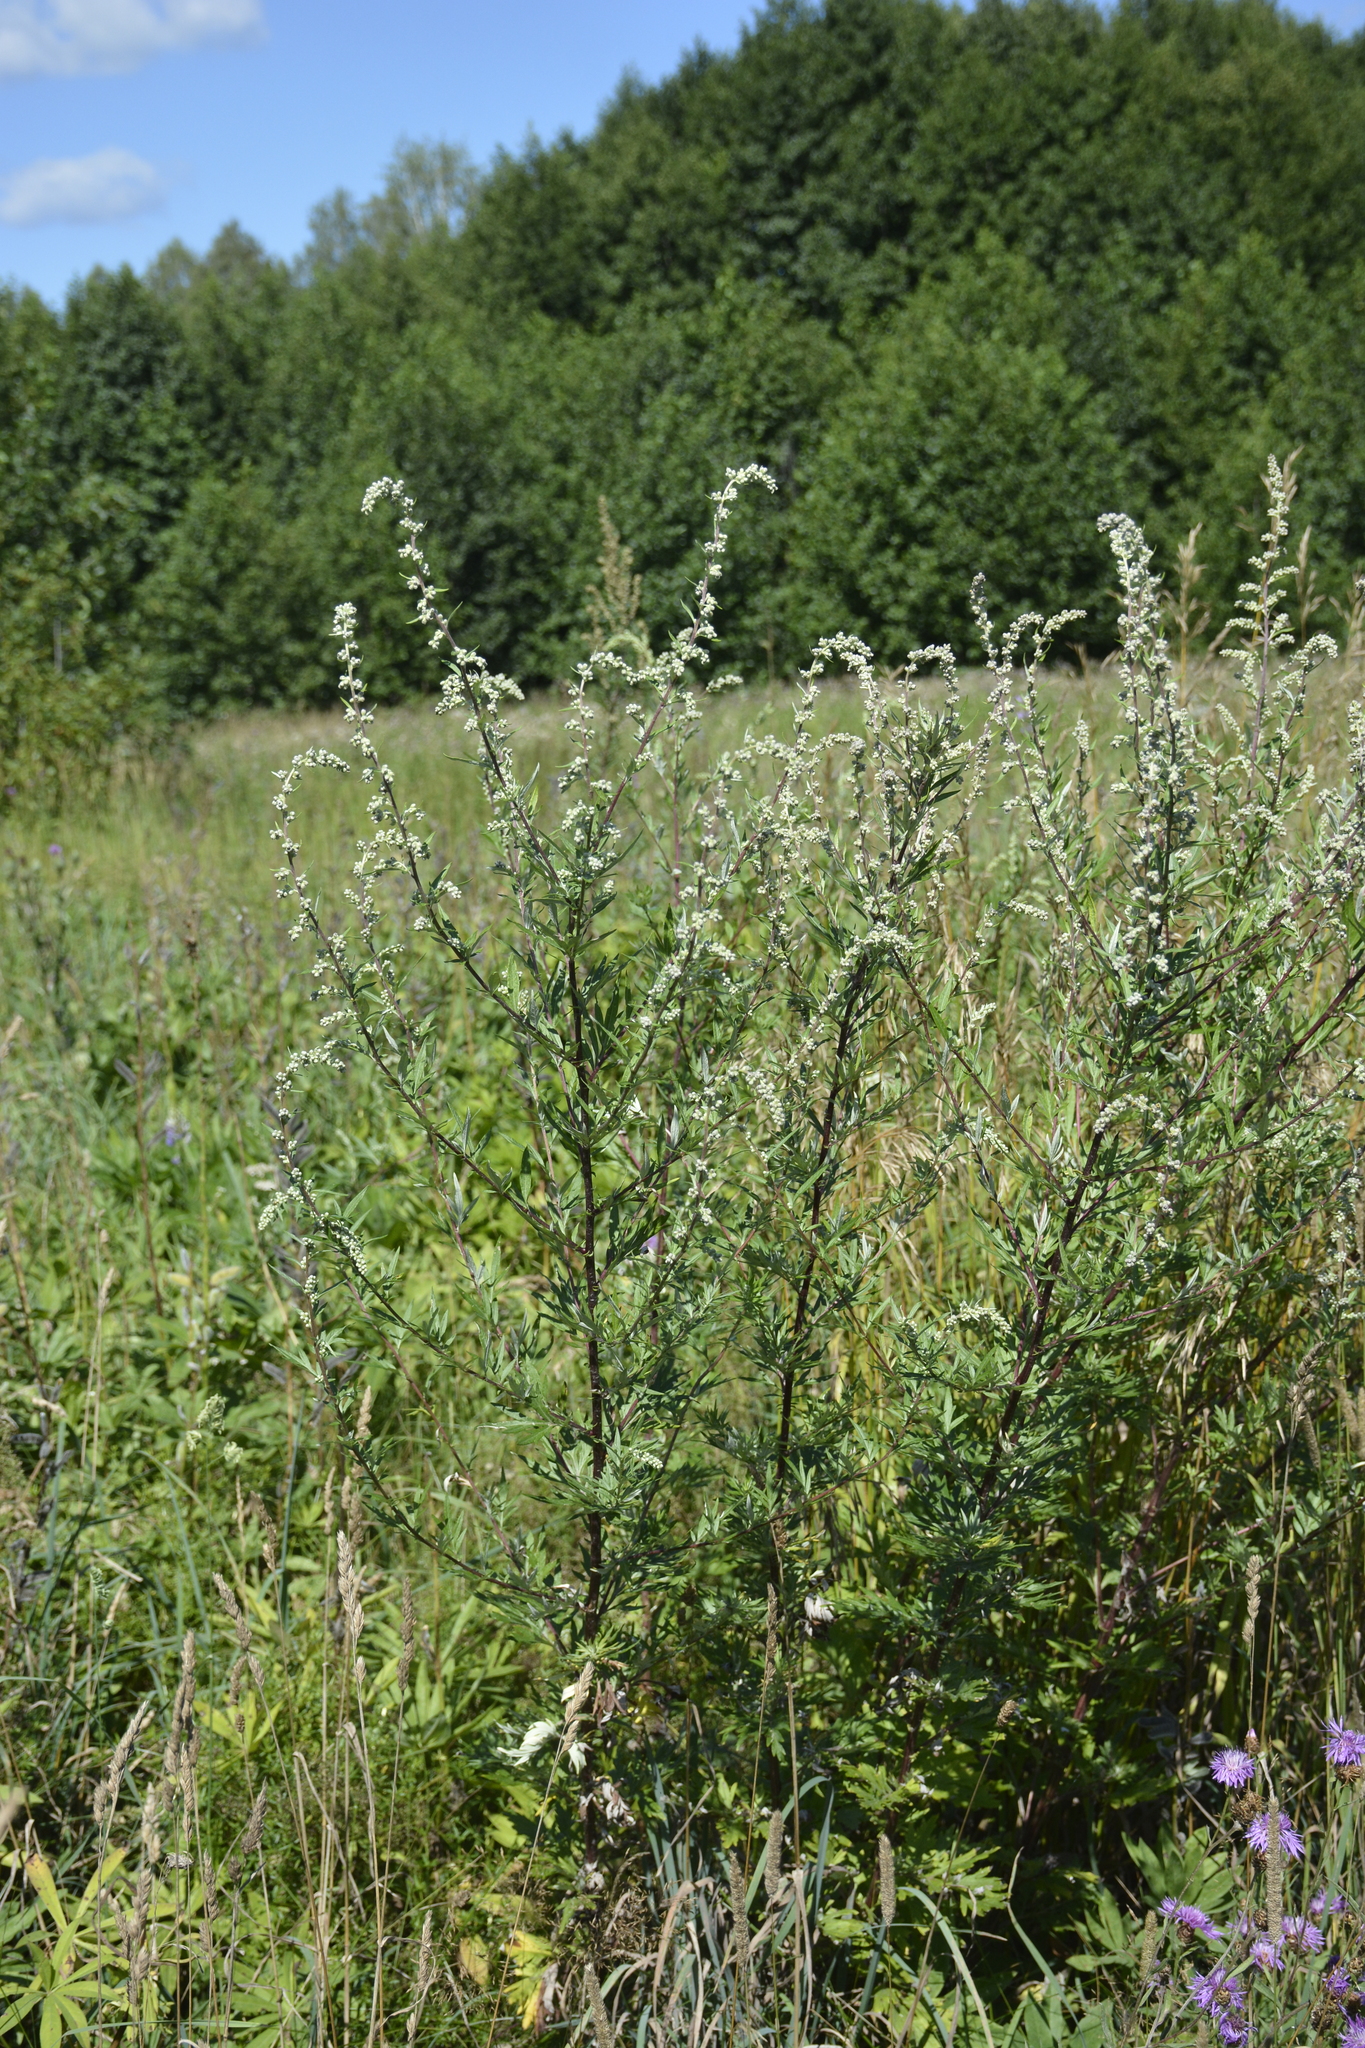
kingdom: Plantae
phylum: Tracheophyta
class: Magnoliopsida
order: Asterales
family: Asteraceae
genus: Artemisia
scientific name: Artemisia vulgaris
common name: Mugwort
